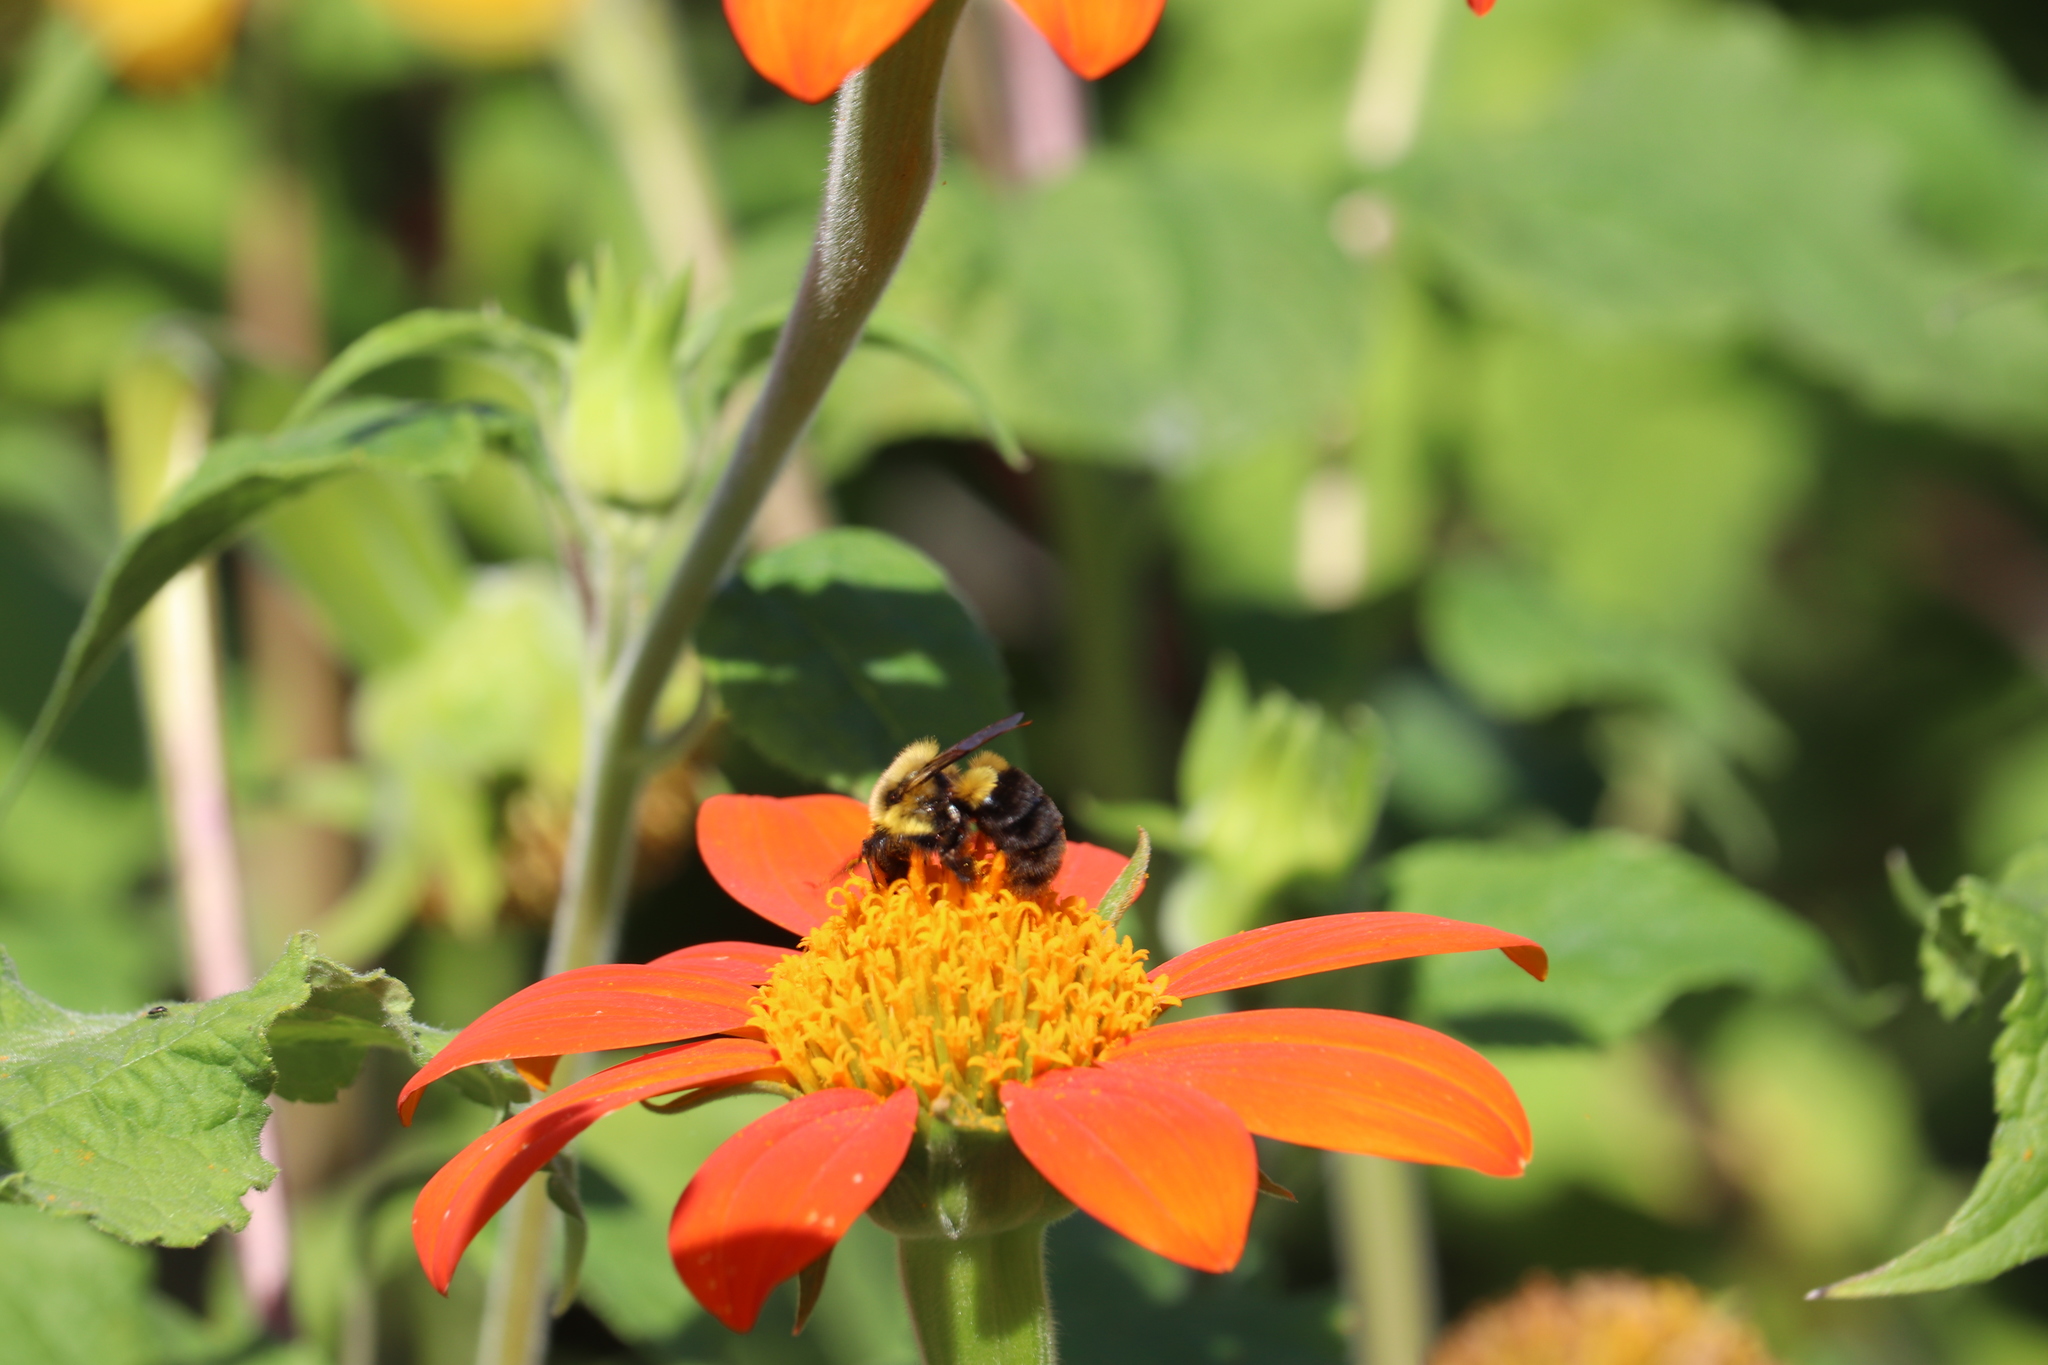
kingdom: Animalia
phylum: Arthropoda
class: Insecta
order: Hymenoptera
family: Apidae
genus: Bombus
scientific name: Bombus impatiens
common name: Common eastern bumble bee
